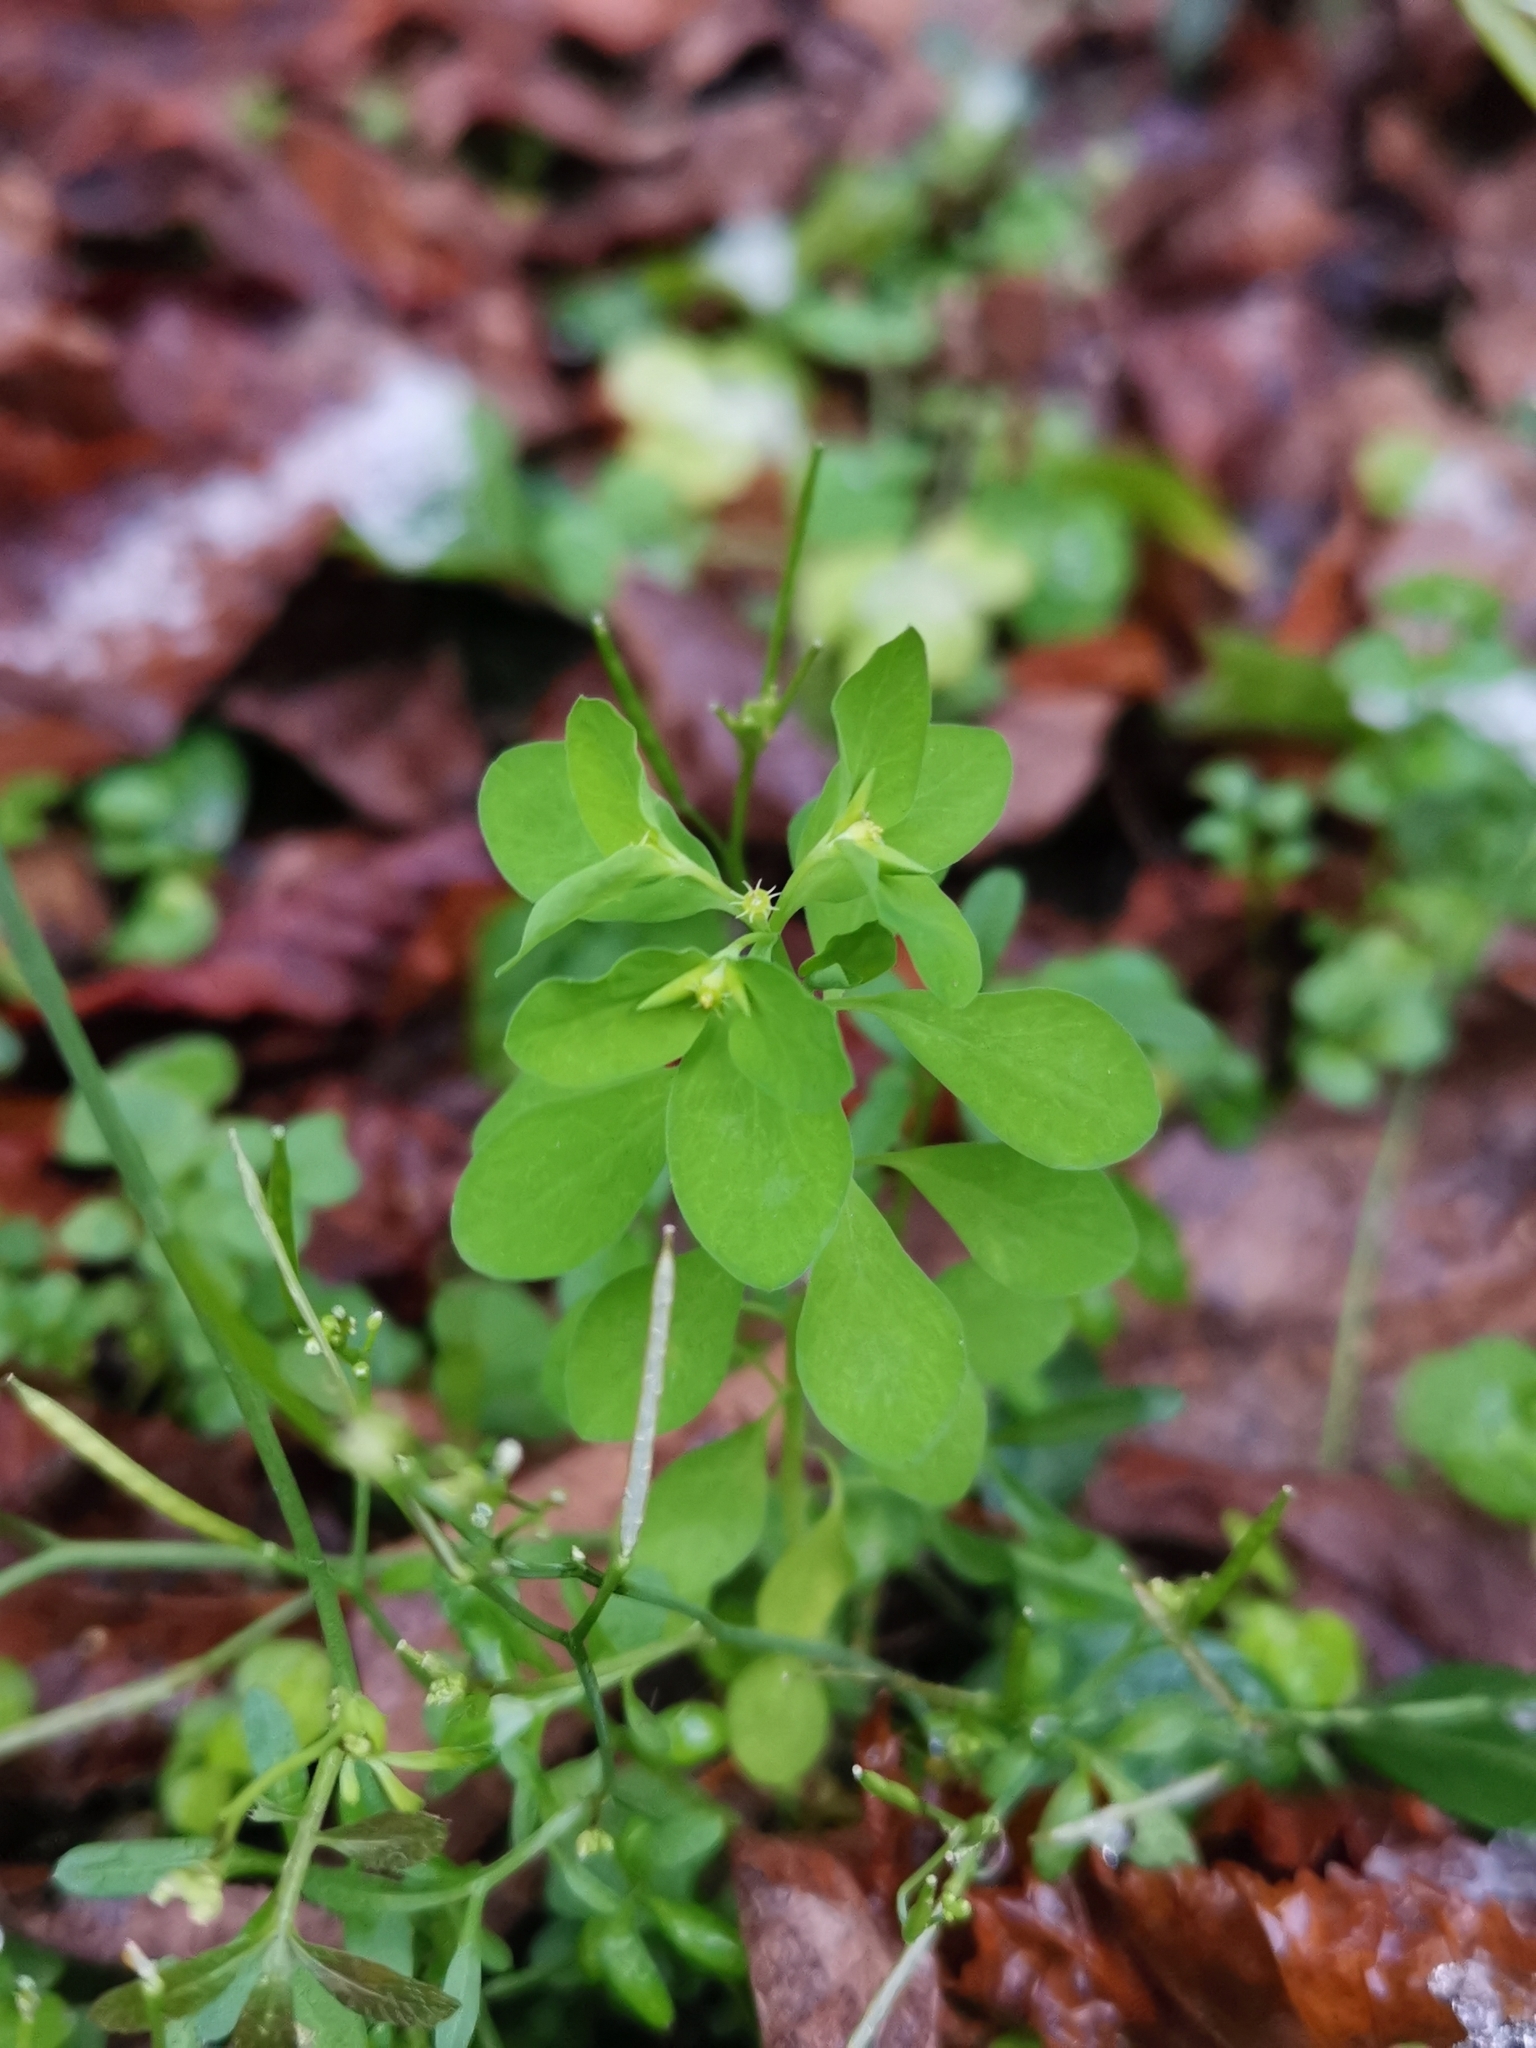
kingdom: Plantae
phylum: Tracheophyta
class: Magnoliopsida
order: Malpighiales
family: Euphorbiaceae
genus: Euphorbia
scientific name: Euphorbia peplus
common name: Petty spurge
